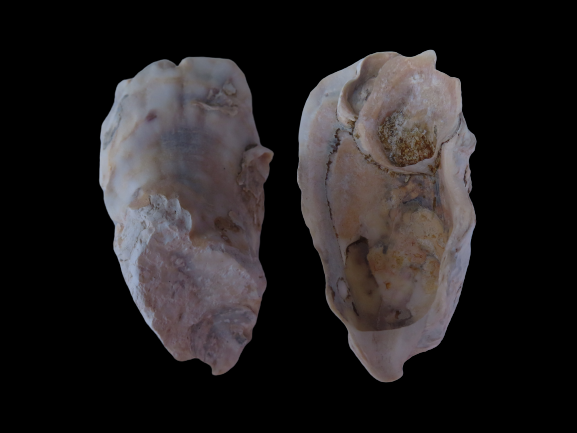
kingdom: Animalia
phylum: Mollusca
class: Bivalvia
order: Ostreida
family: Ostreidae
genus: Crassostrea
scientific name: Crassostrea virginica
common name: American oyster
